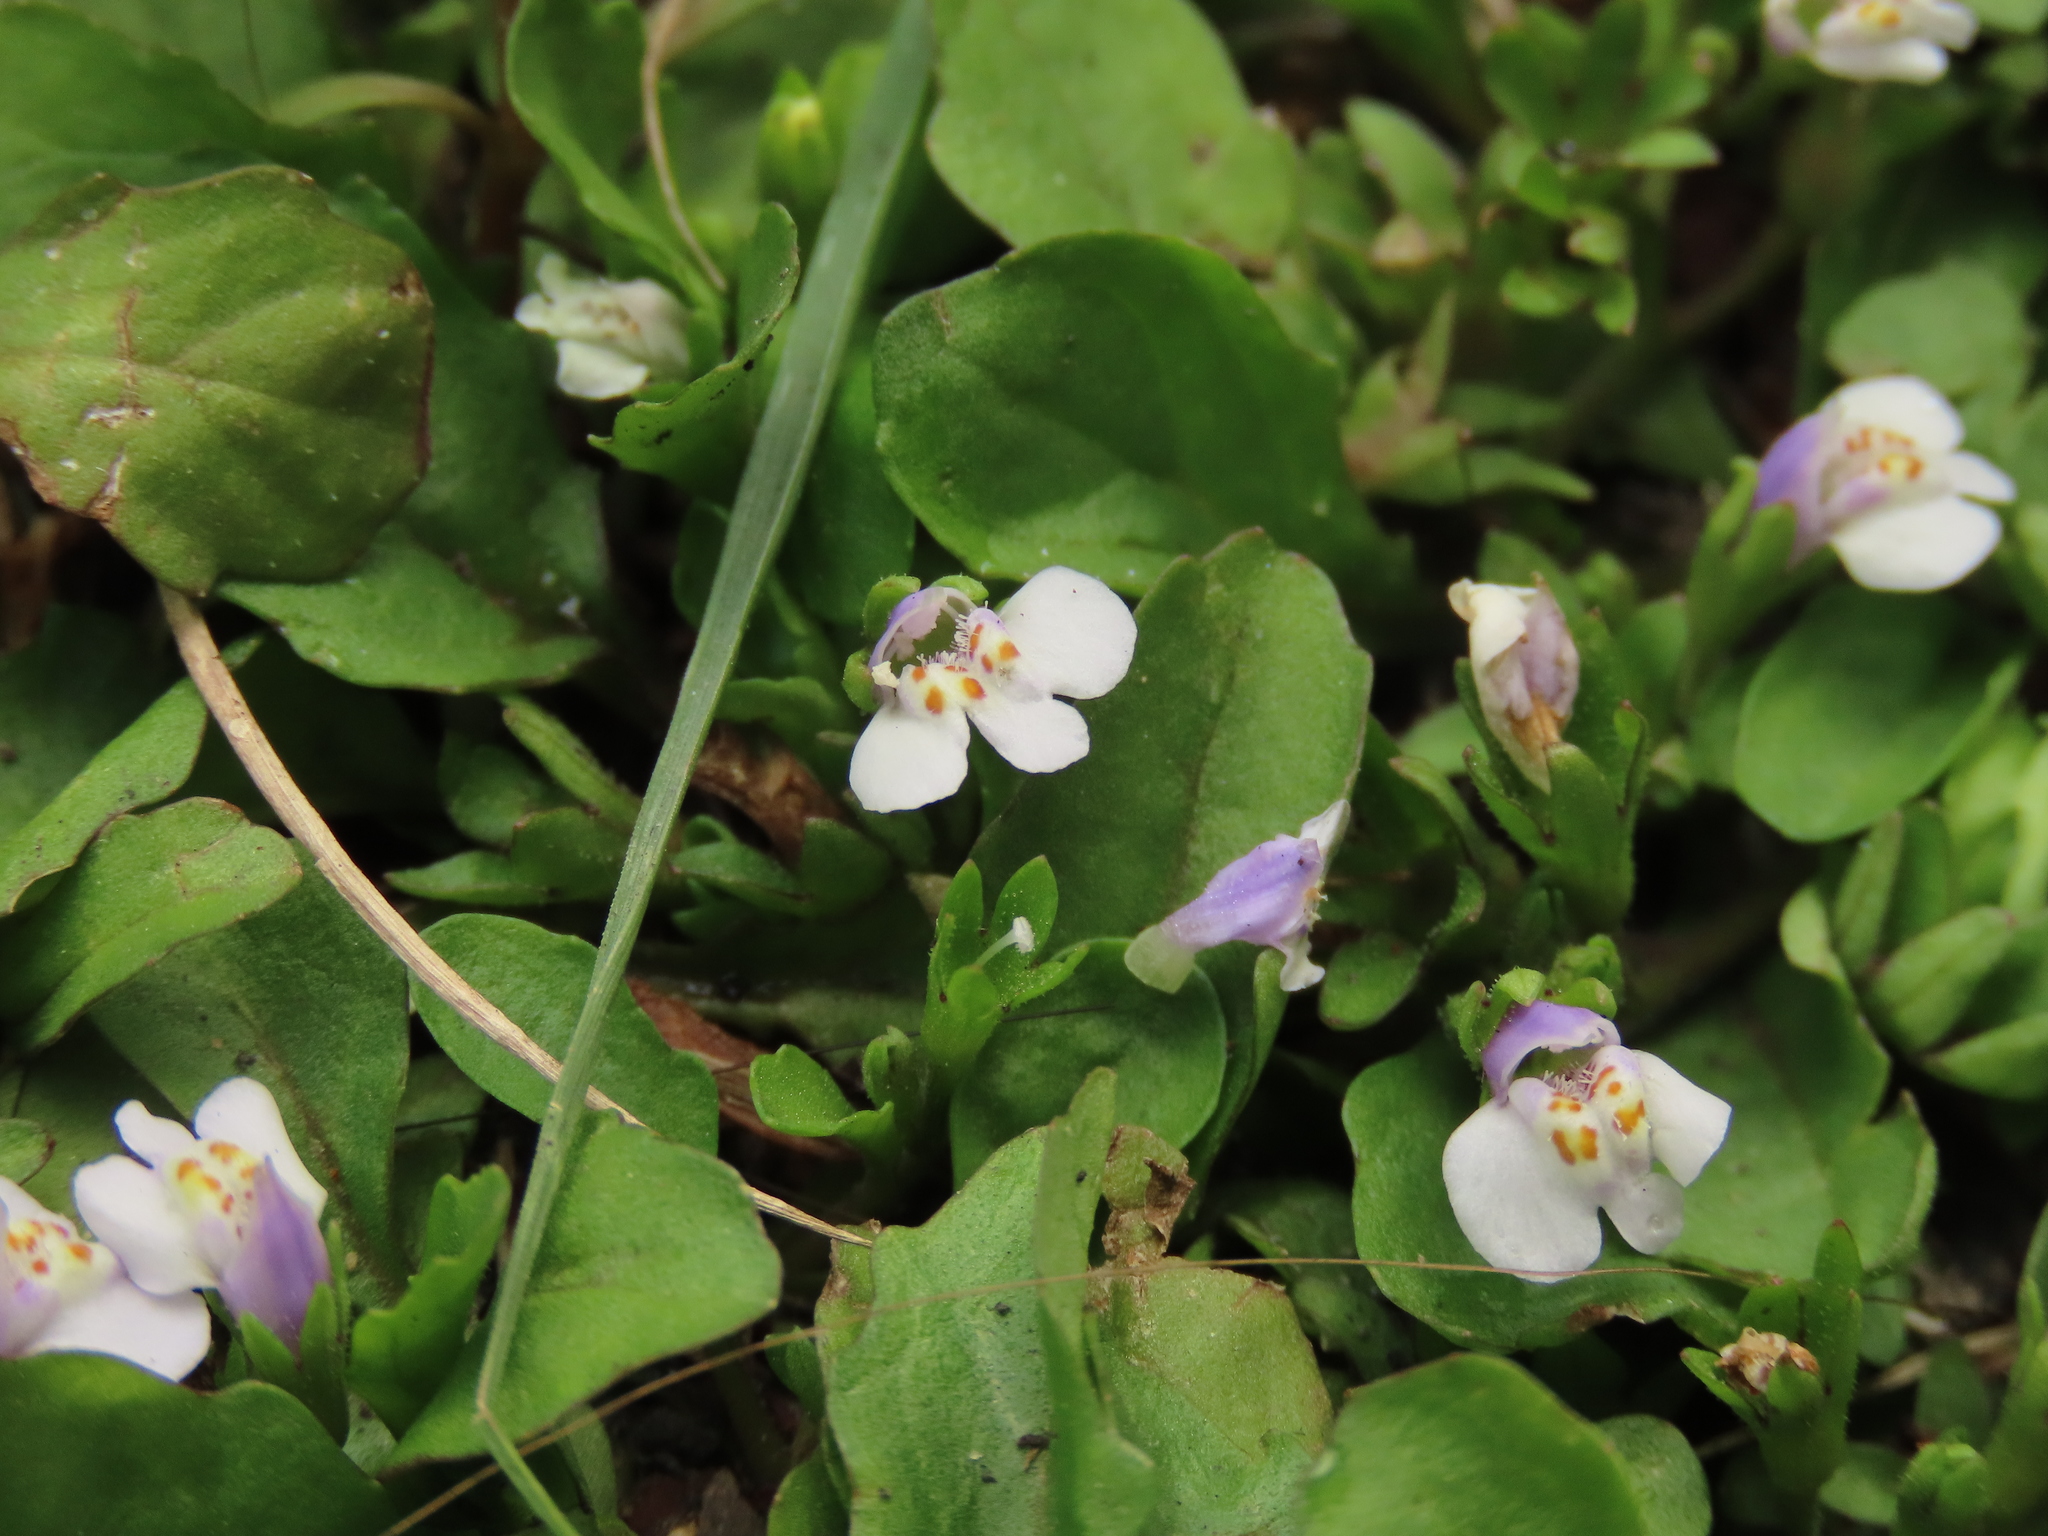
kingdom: Plantae
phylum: Tracheophyta
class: Magnoliopsida
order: Lamiales
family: Mazaceae
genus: Mazus
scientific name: Mazus pumilus
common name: Japanese mazus
